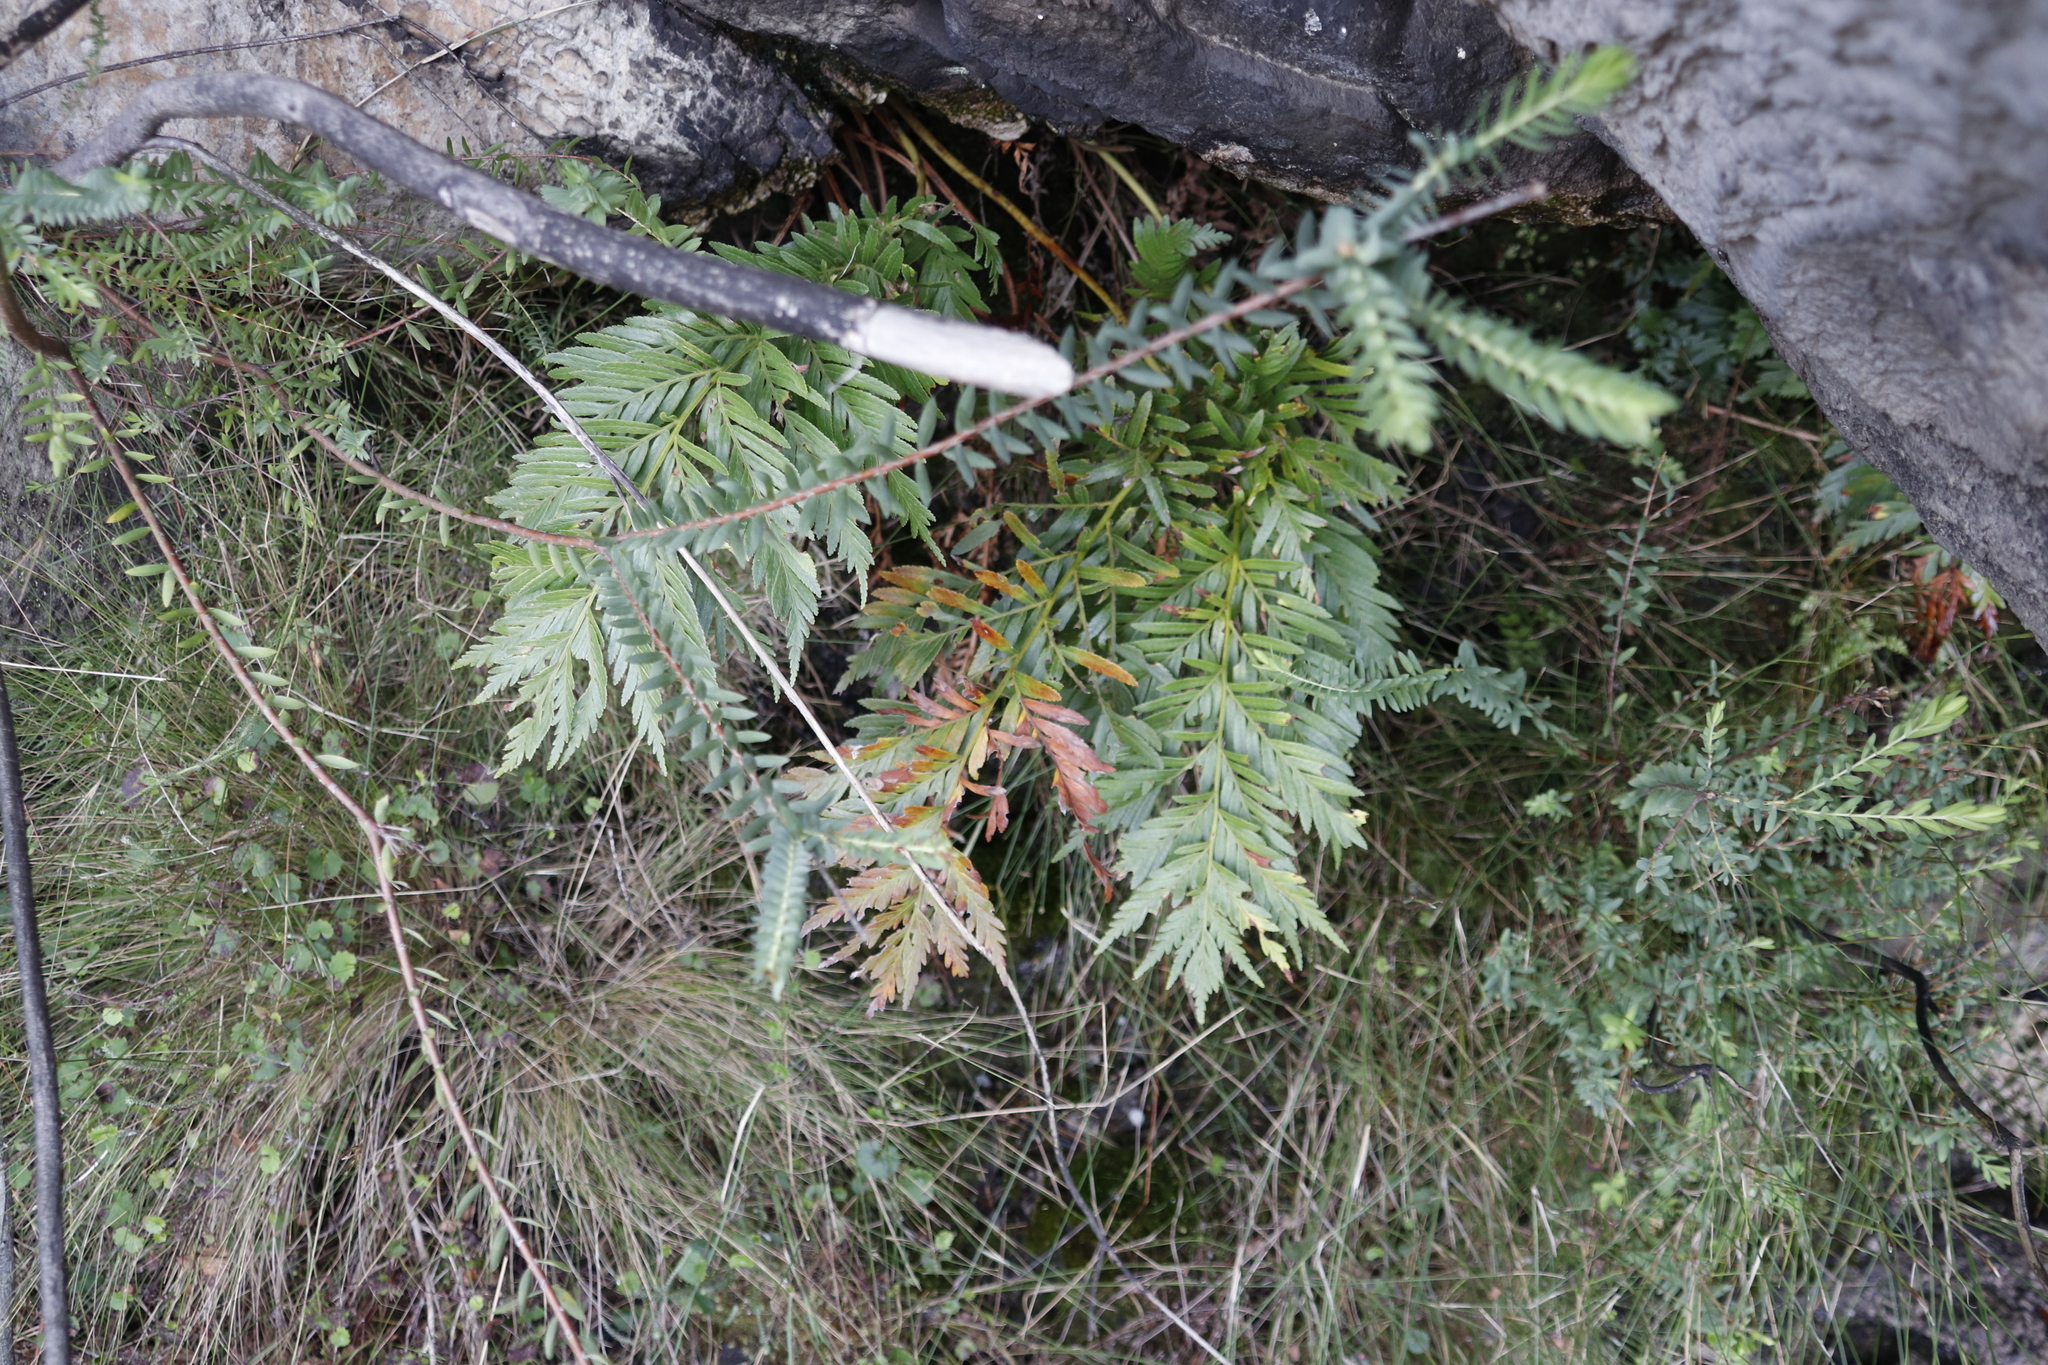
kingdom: Plantae
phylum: Tracheophyta
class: Polypodiopsida
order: Osmundales
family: Osmundaceae
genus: Todea
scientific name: Todea barbara
